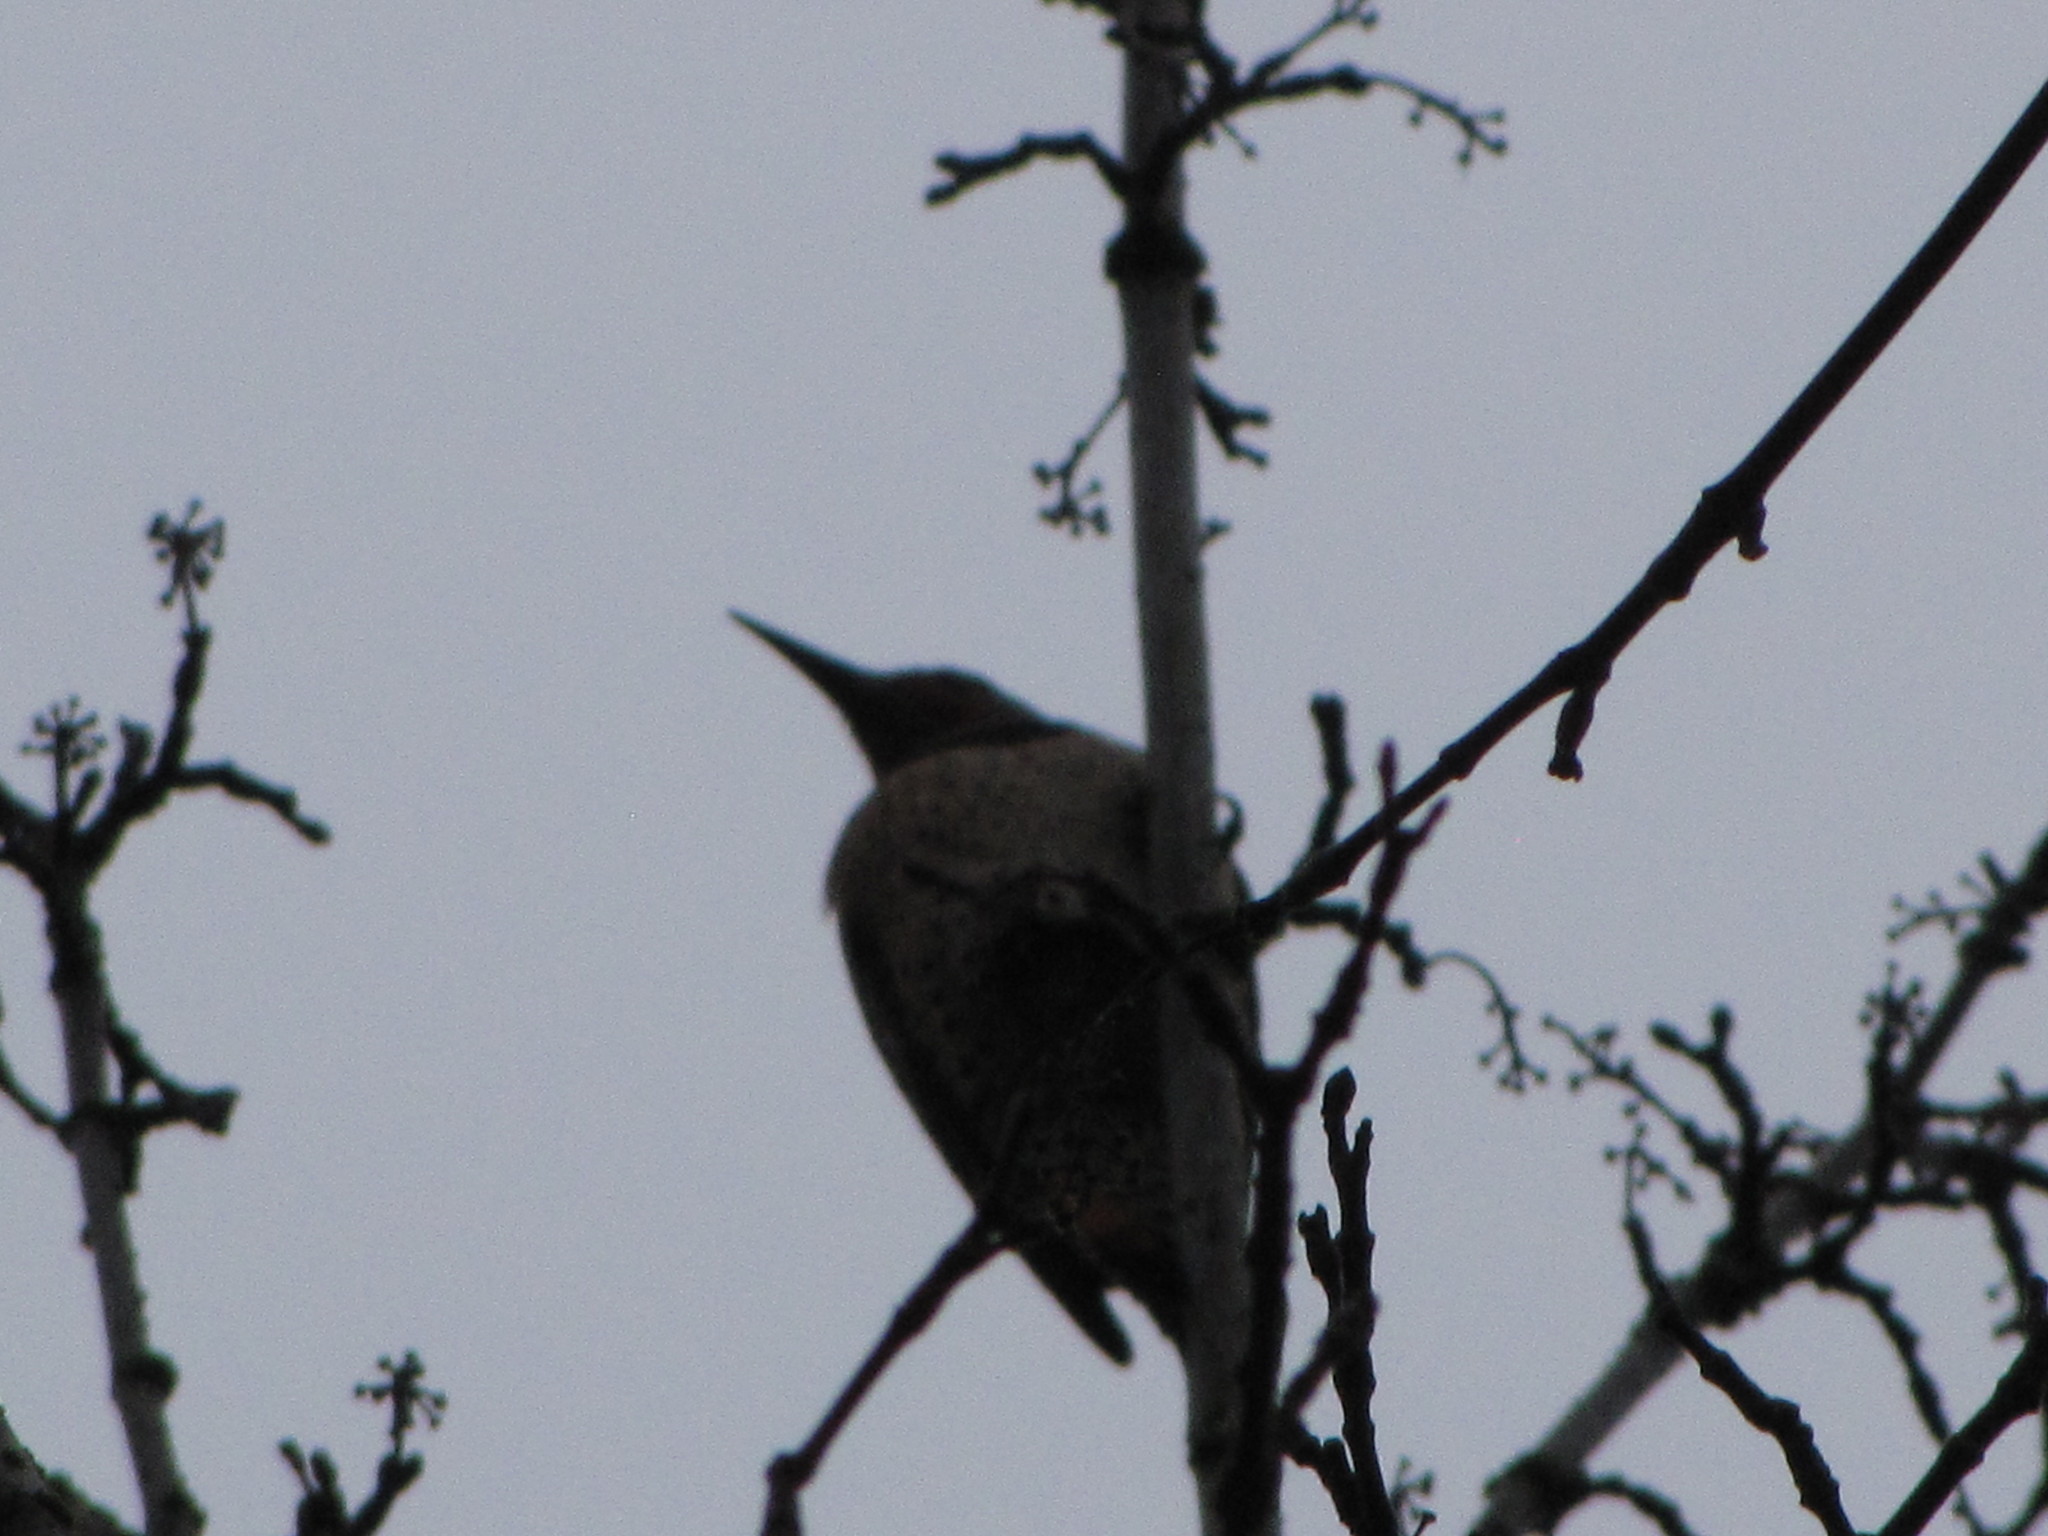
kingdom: Animalia
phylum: Chordata
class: Aves
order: Piciformes
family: Picidae
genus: Colaptes
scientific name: Colaptes auratus
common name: Northern flicker
